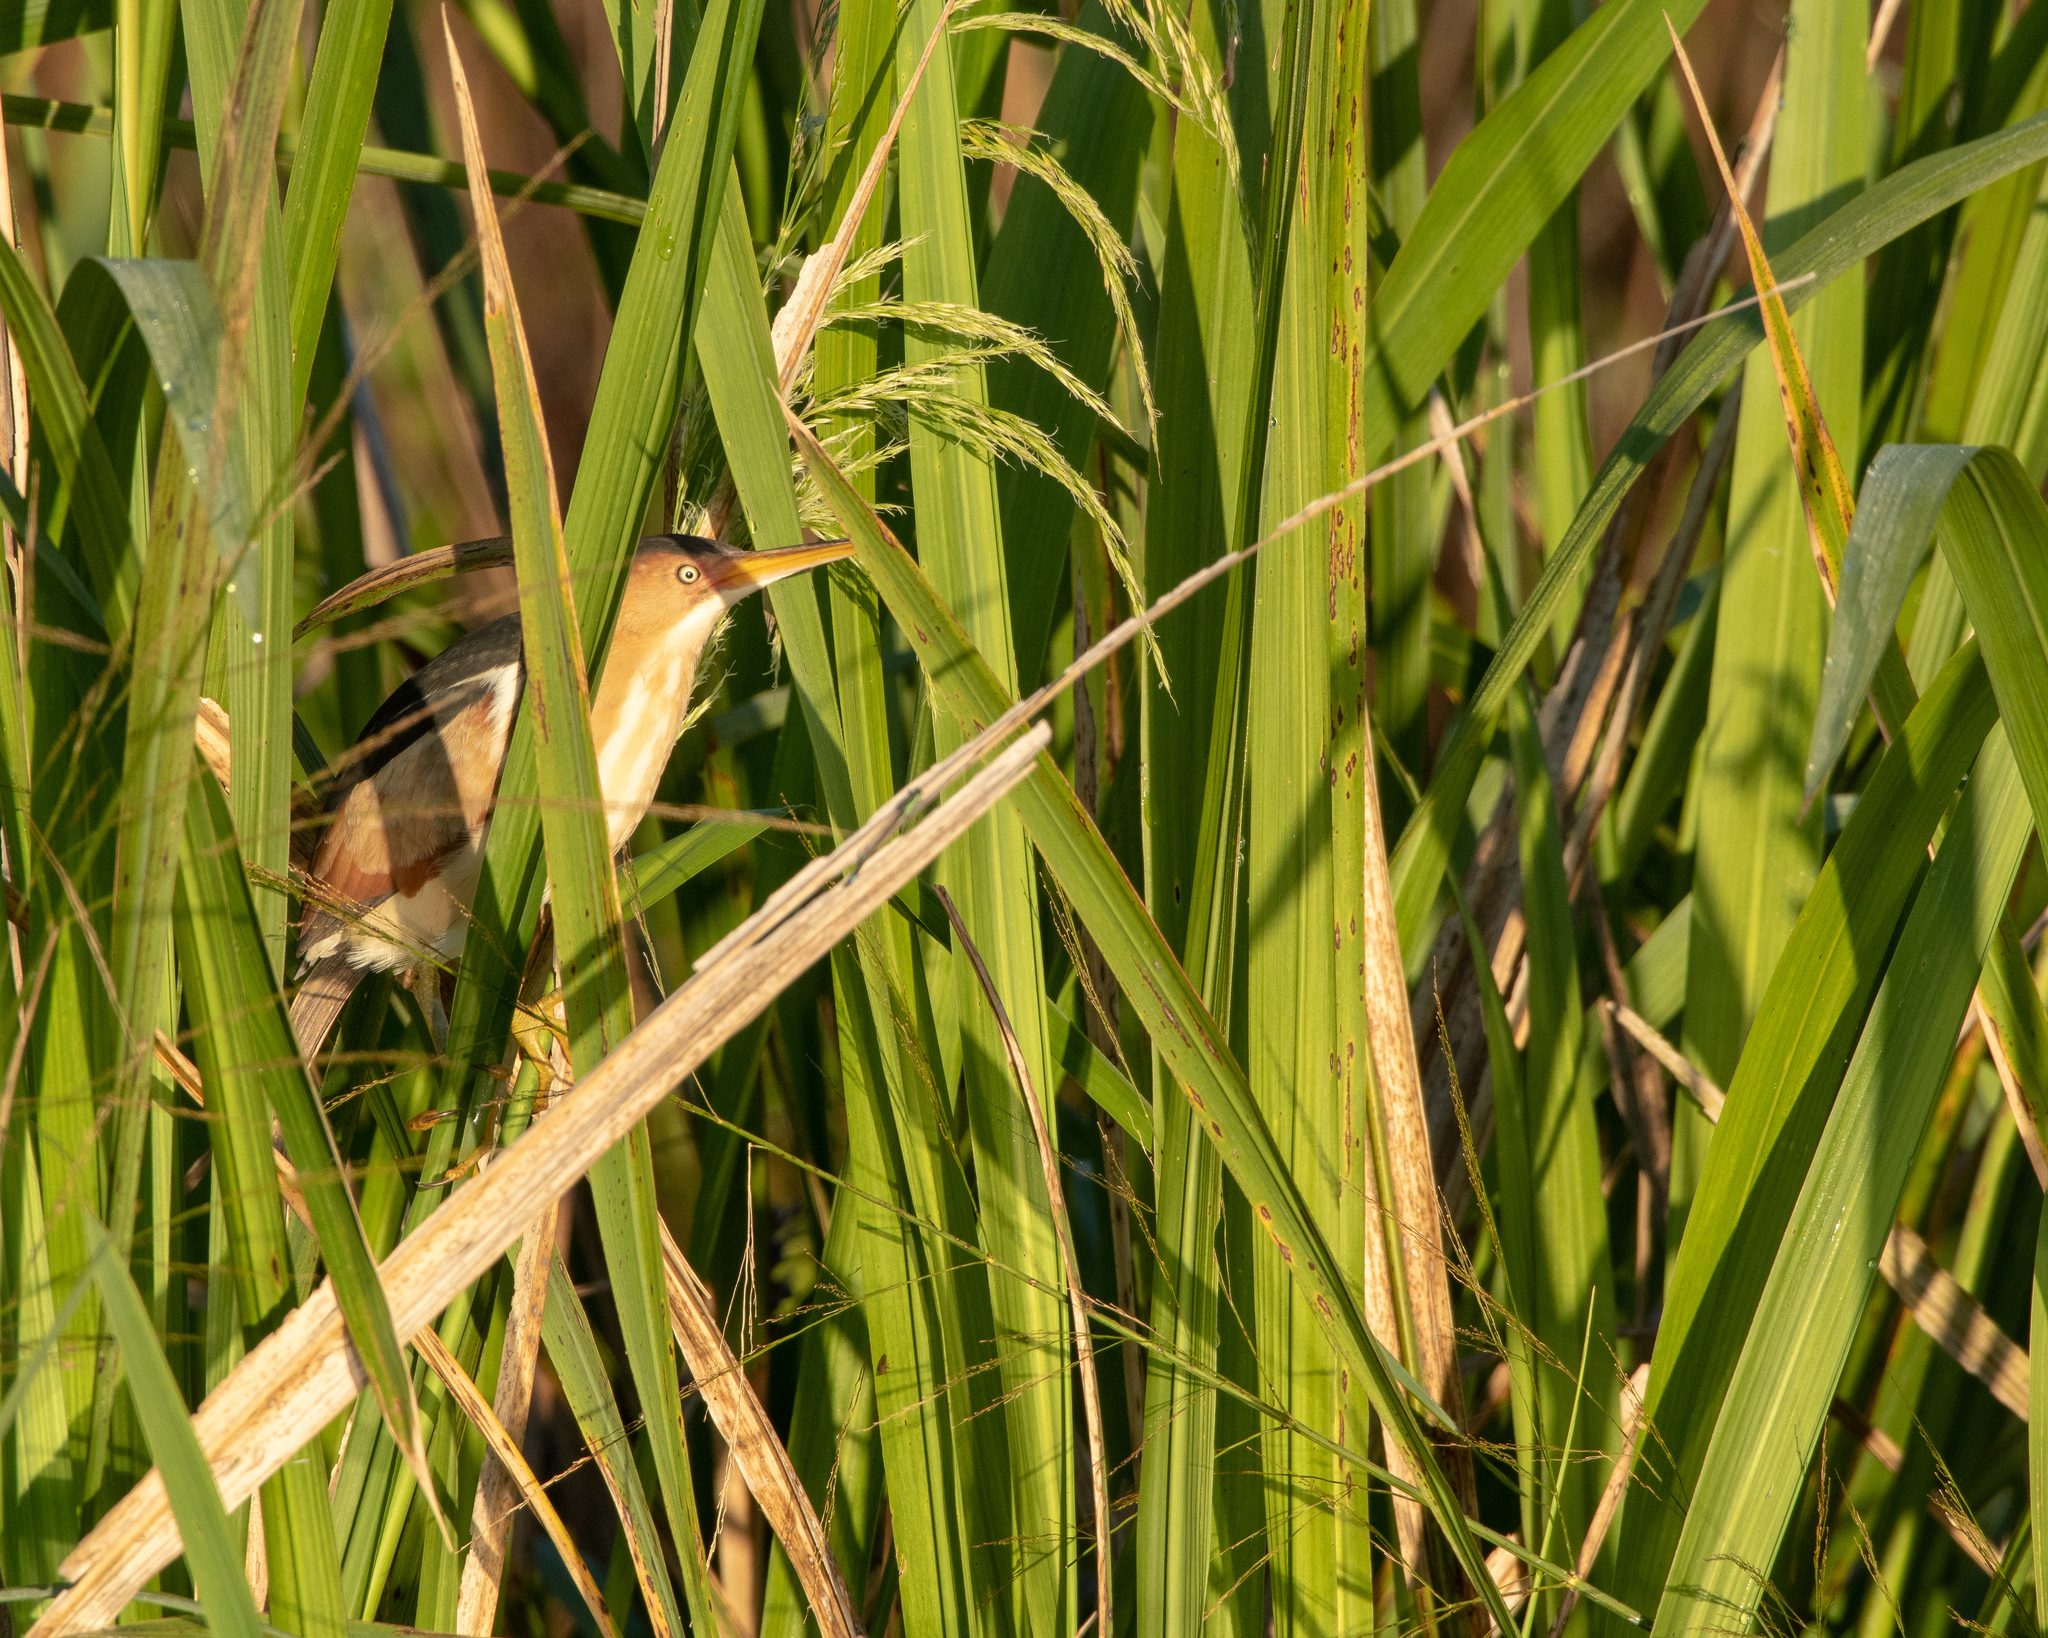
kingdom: Animalia
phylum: Chordata
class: Aves
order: Pelecaniformes
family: Ardeidae
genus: Ixobrychus
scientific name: Ixobrychus exilis
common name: Least bittern
